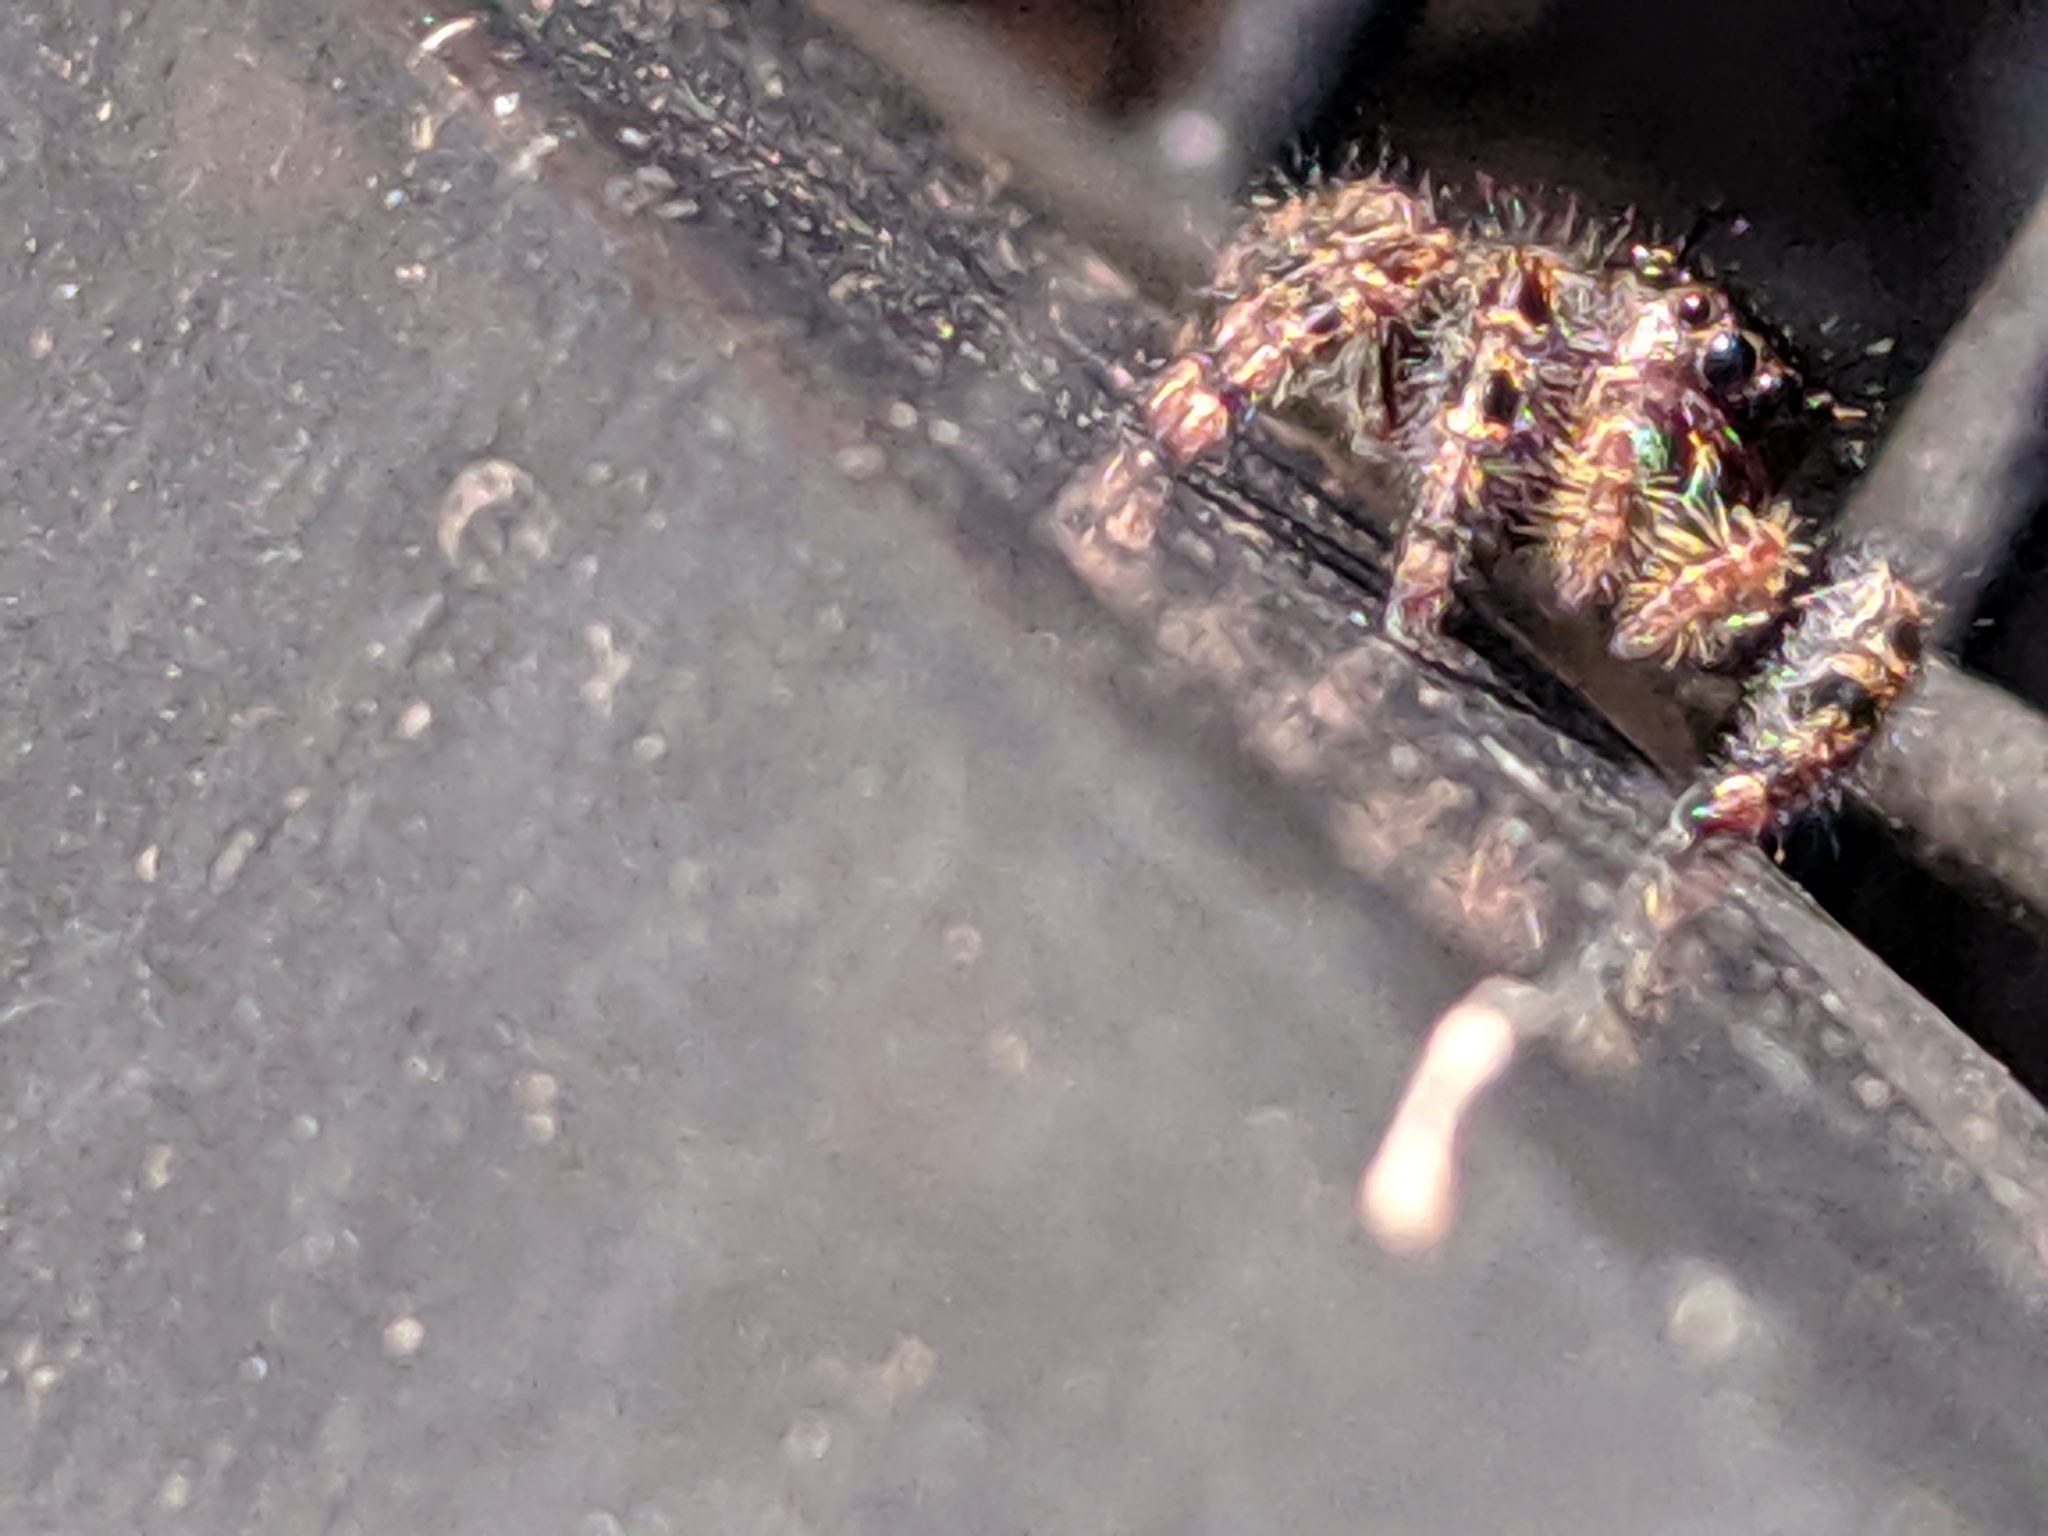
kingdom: Animalia
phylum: Arthropoda
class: Arachnida
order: Araneae
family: Salticidae
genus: Phidippus
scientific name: Phidippus audax
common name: Bold jumper
